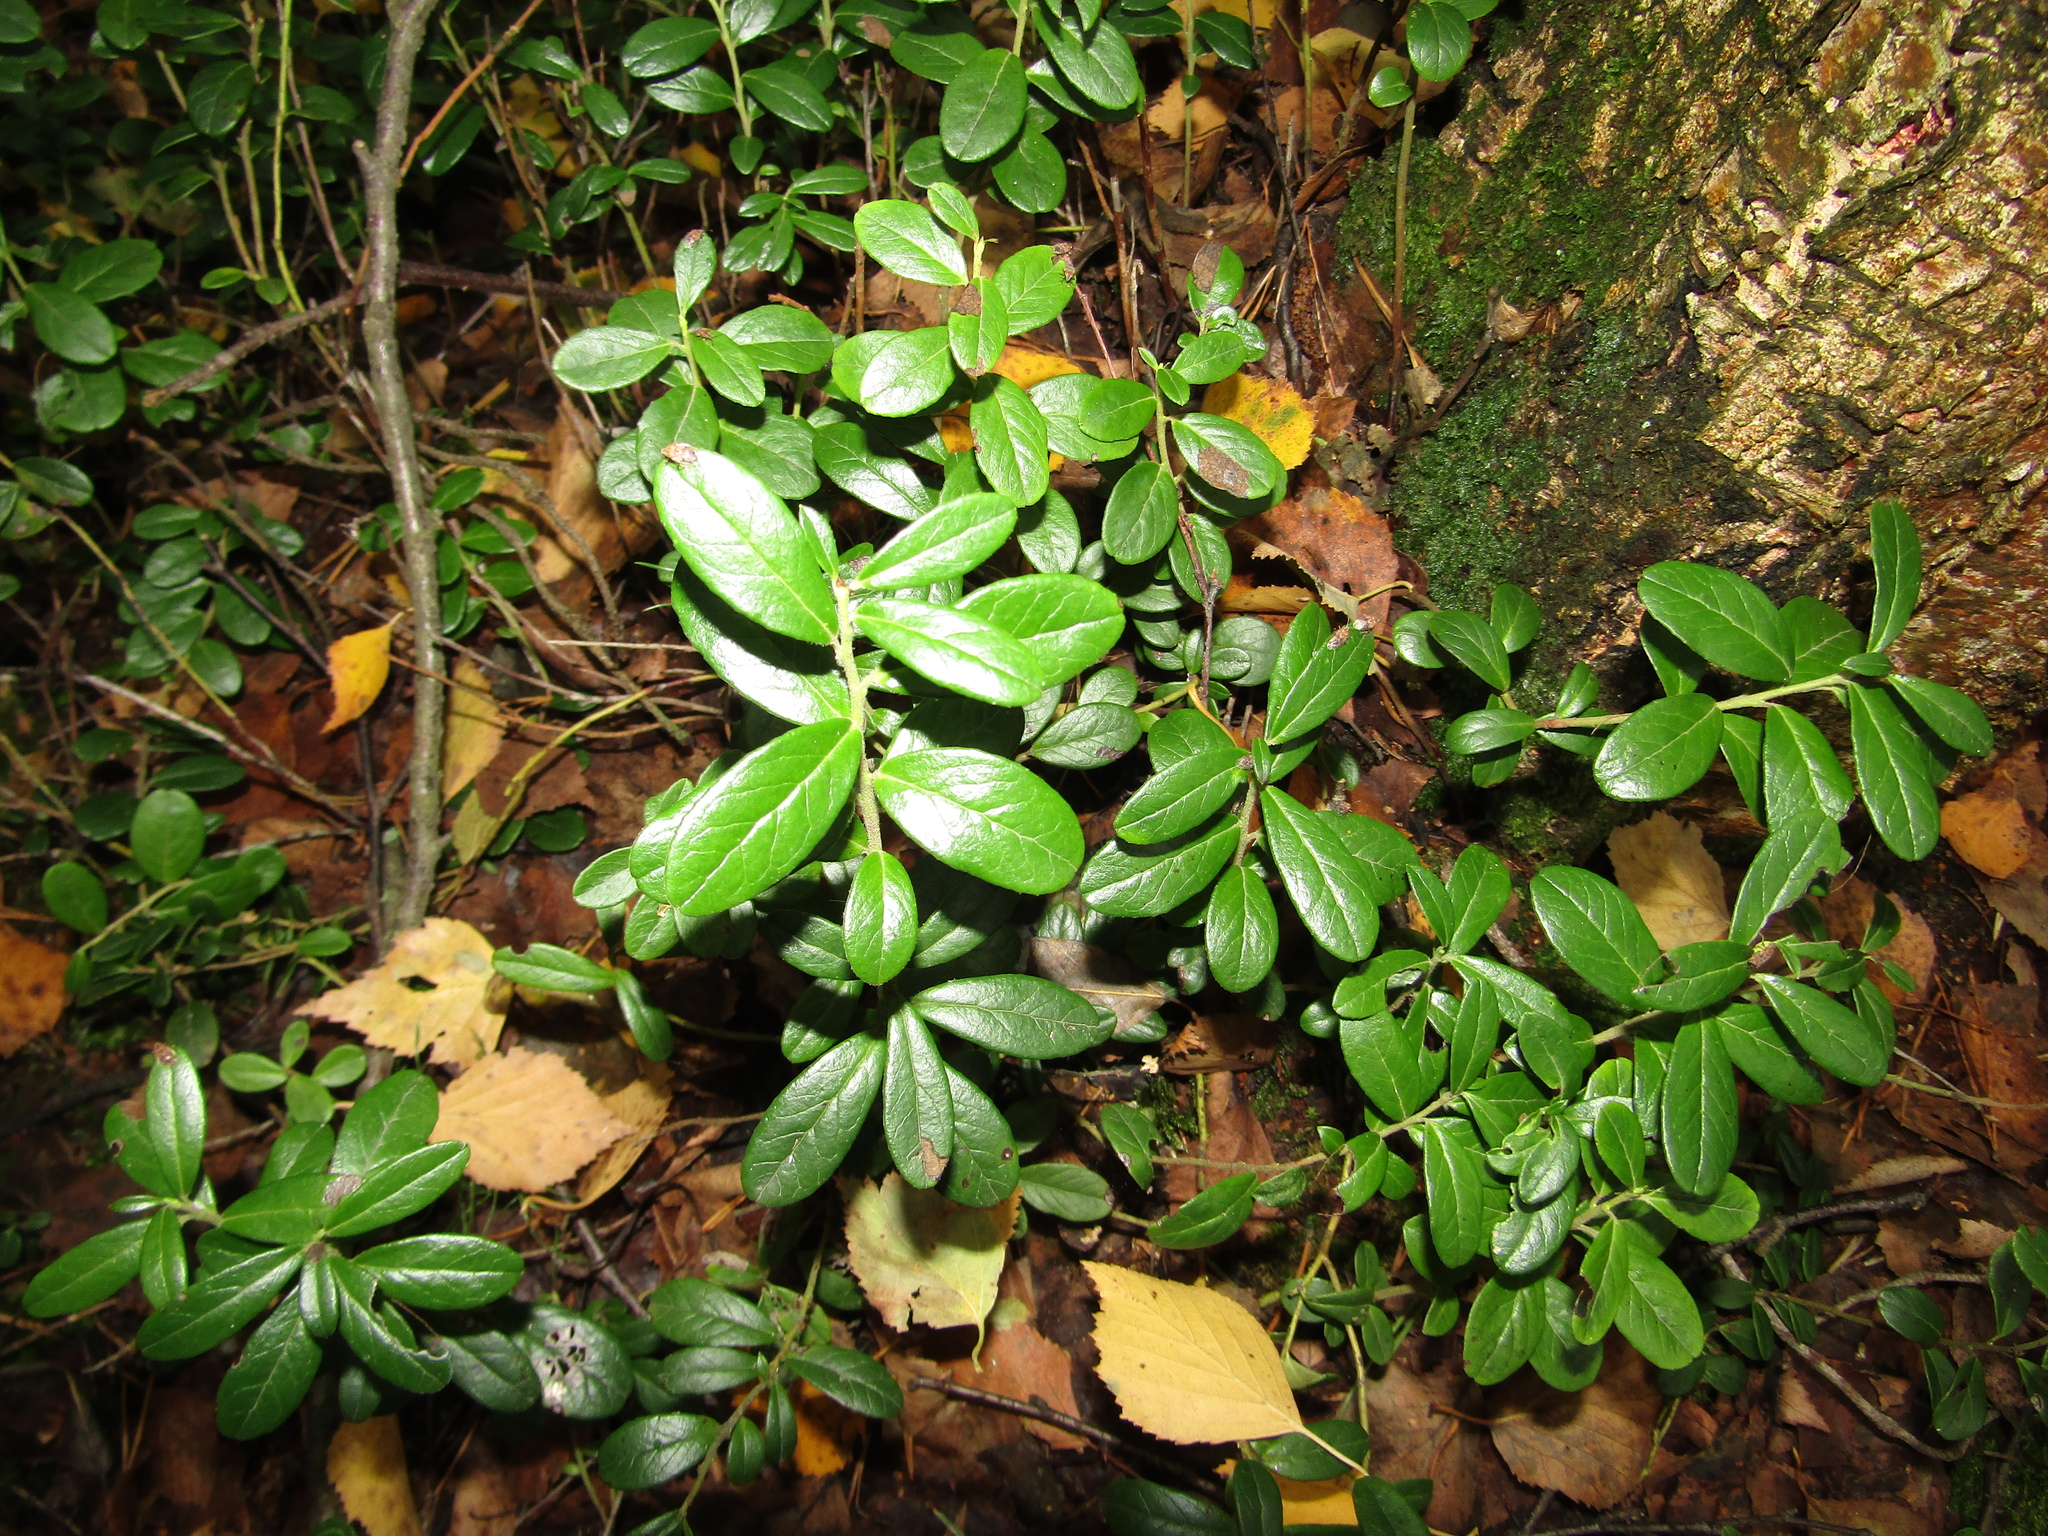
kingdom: Plantae
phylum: Tracheophyta
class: Magnoliopsida
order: Ericales
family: Ericaceae
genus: Vaccinium
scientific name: Vaccinium vitis-idaea
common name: Cowberry
